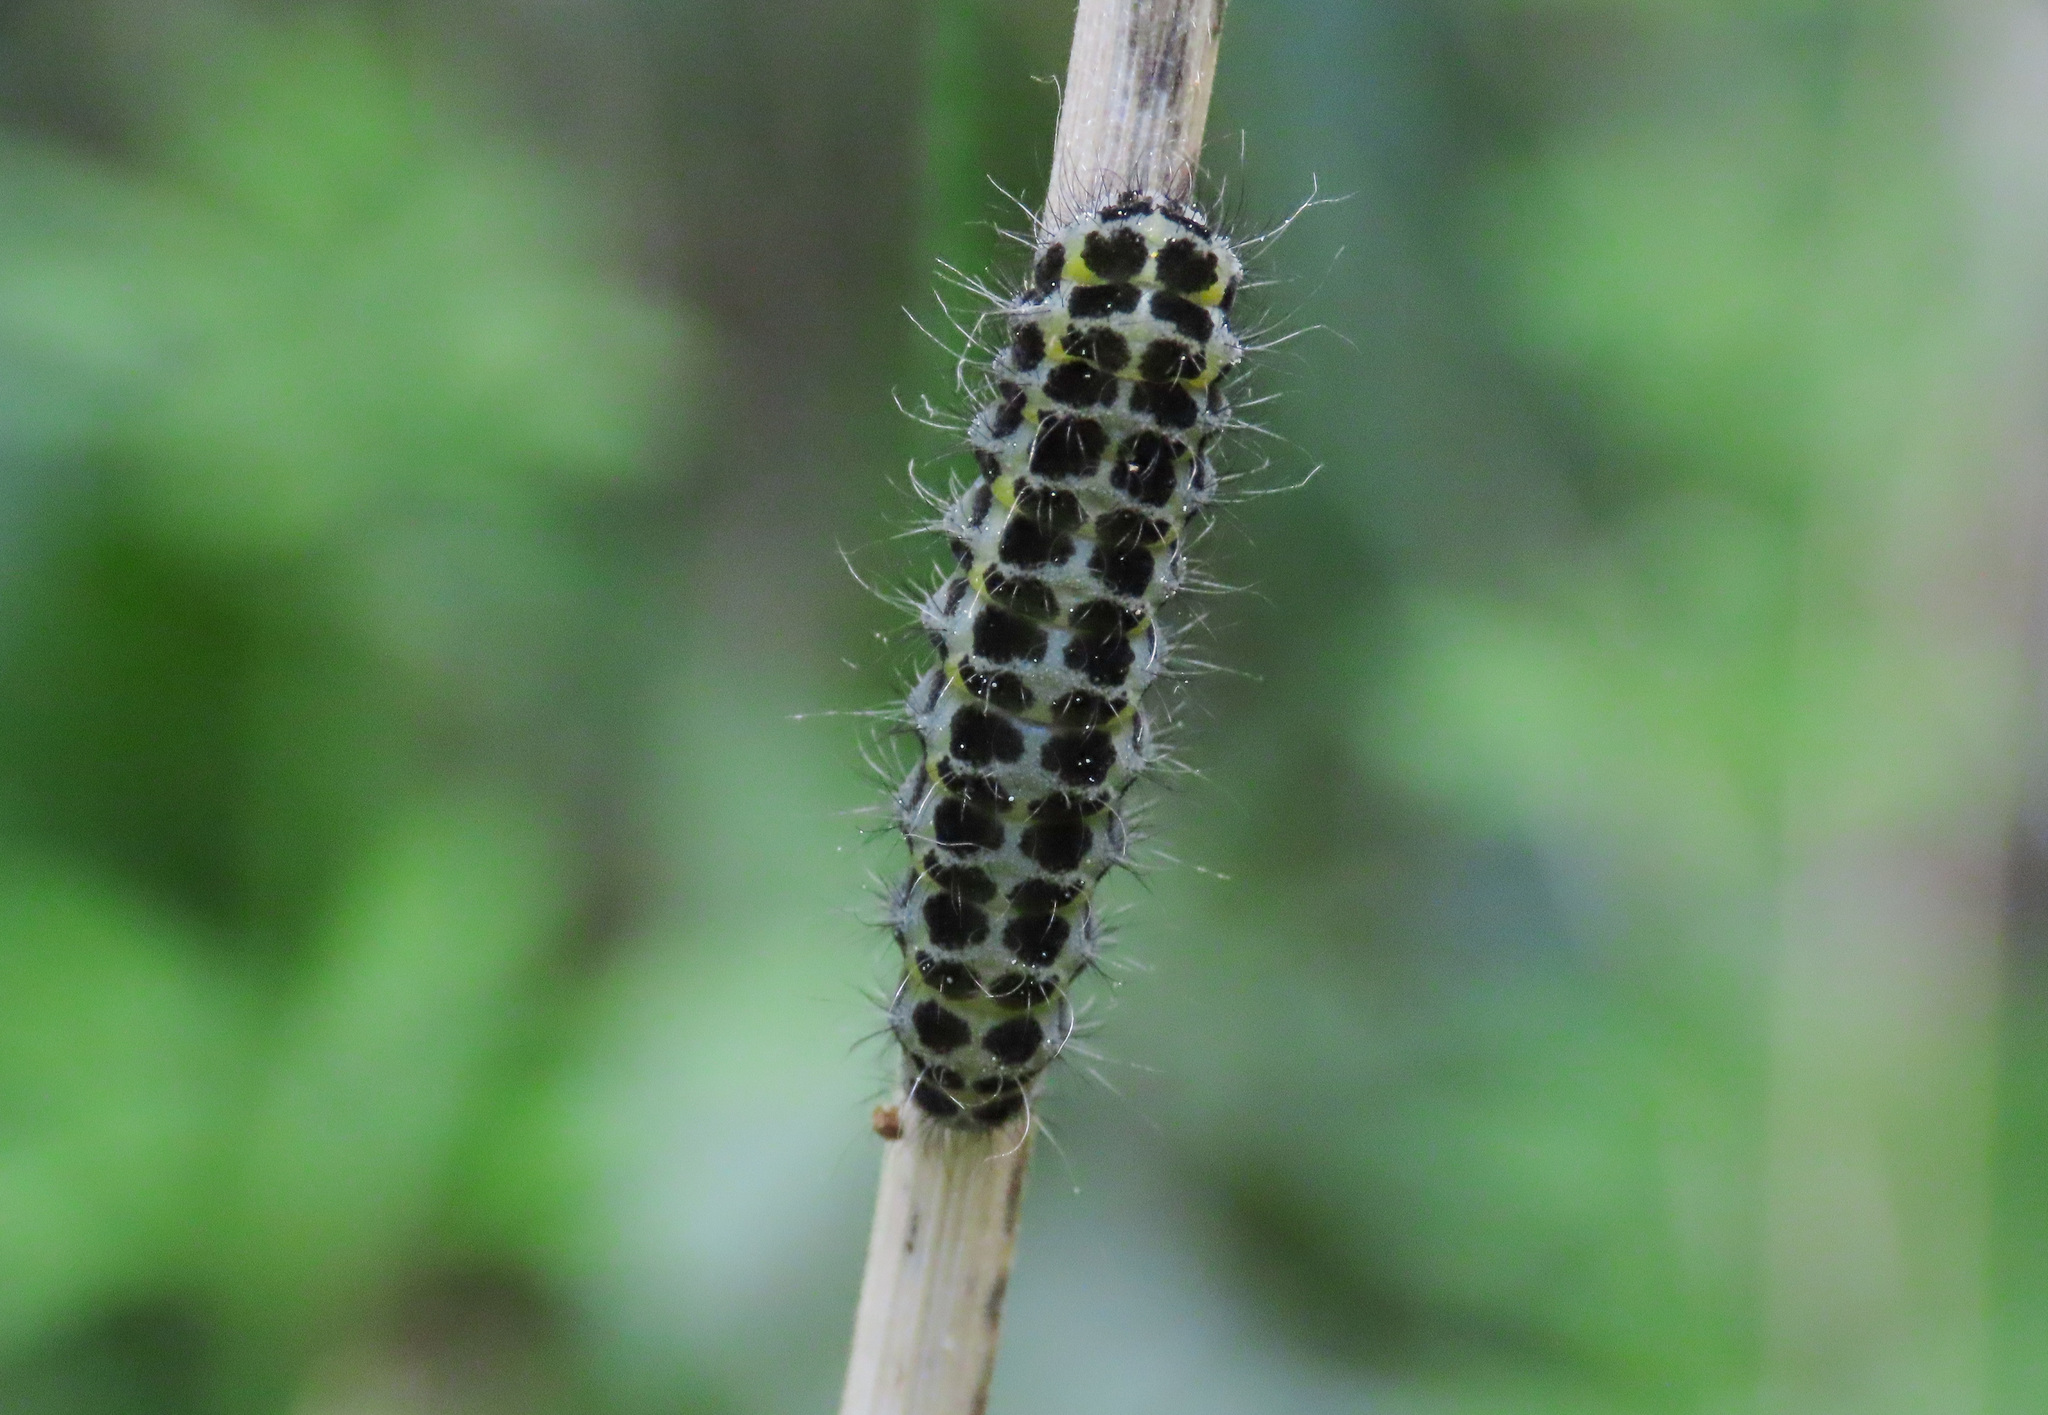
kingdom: Animalia
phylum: Arthropoda
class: Insecta
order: Lepidoptera
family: Zygaenidae
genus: Zygaena
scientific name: Zygaena lonicerae
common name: Narrow-bordered five-spot burnet
